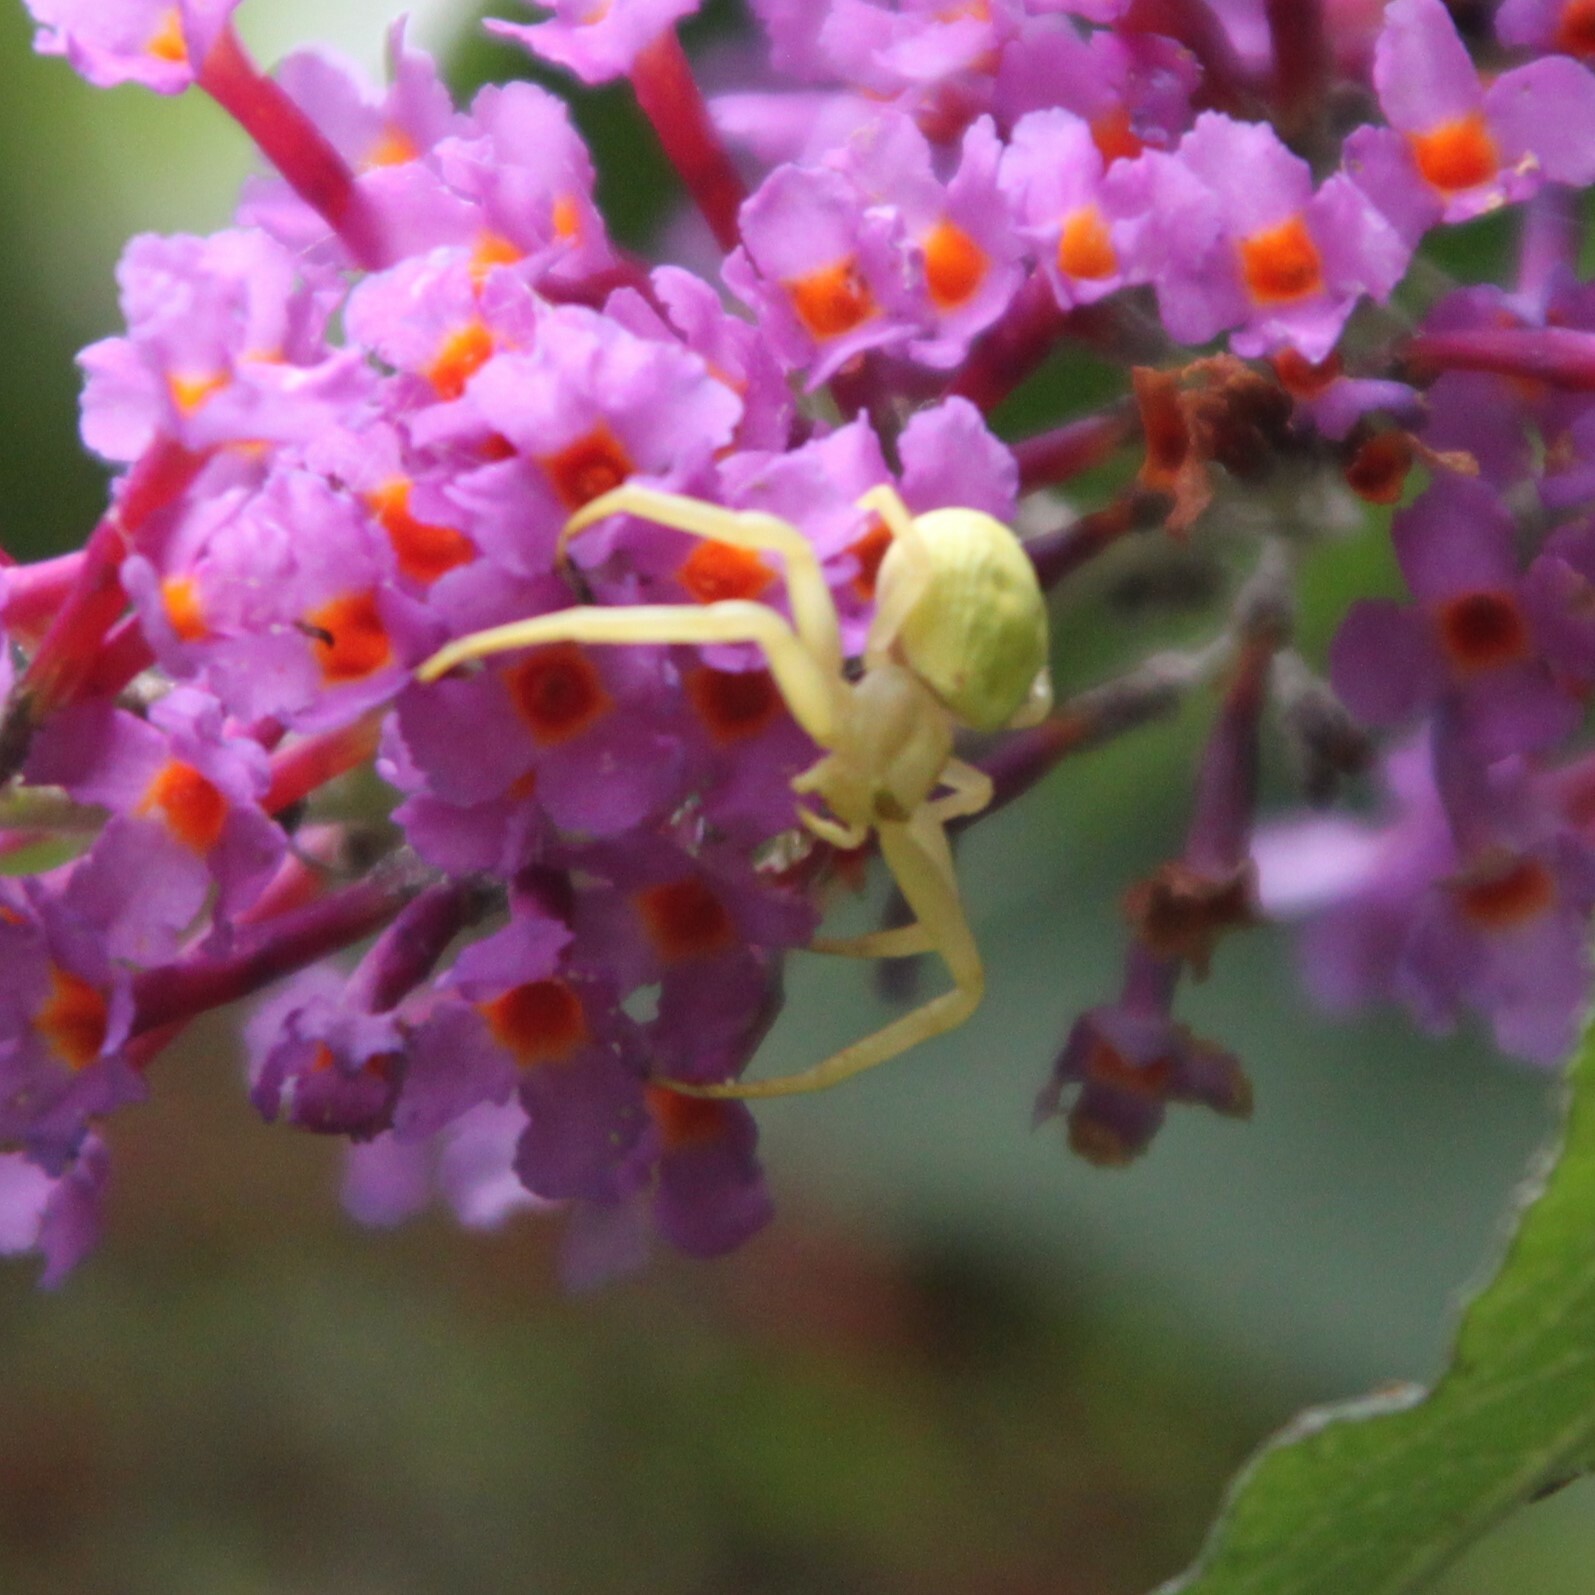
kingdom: Animalia
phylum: Arthropoda
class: Arachnida
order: Araneae
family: Thomisidae
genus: Misumena
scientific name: Misumena vatia
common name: Goldenrod crab spider
